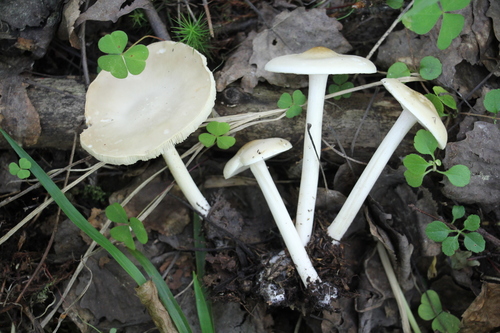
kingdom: Fungi
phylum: Basidiomycota
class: Agaricomycetes
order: Agaricales
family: Tricholomataceae
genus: Melanoleuca
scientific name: Melanoleuca strictipes
